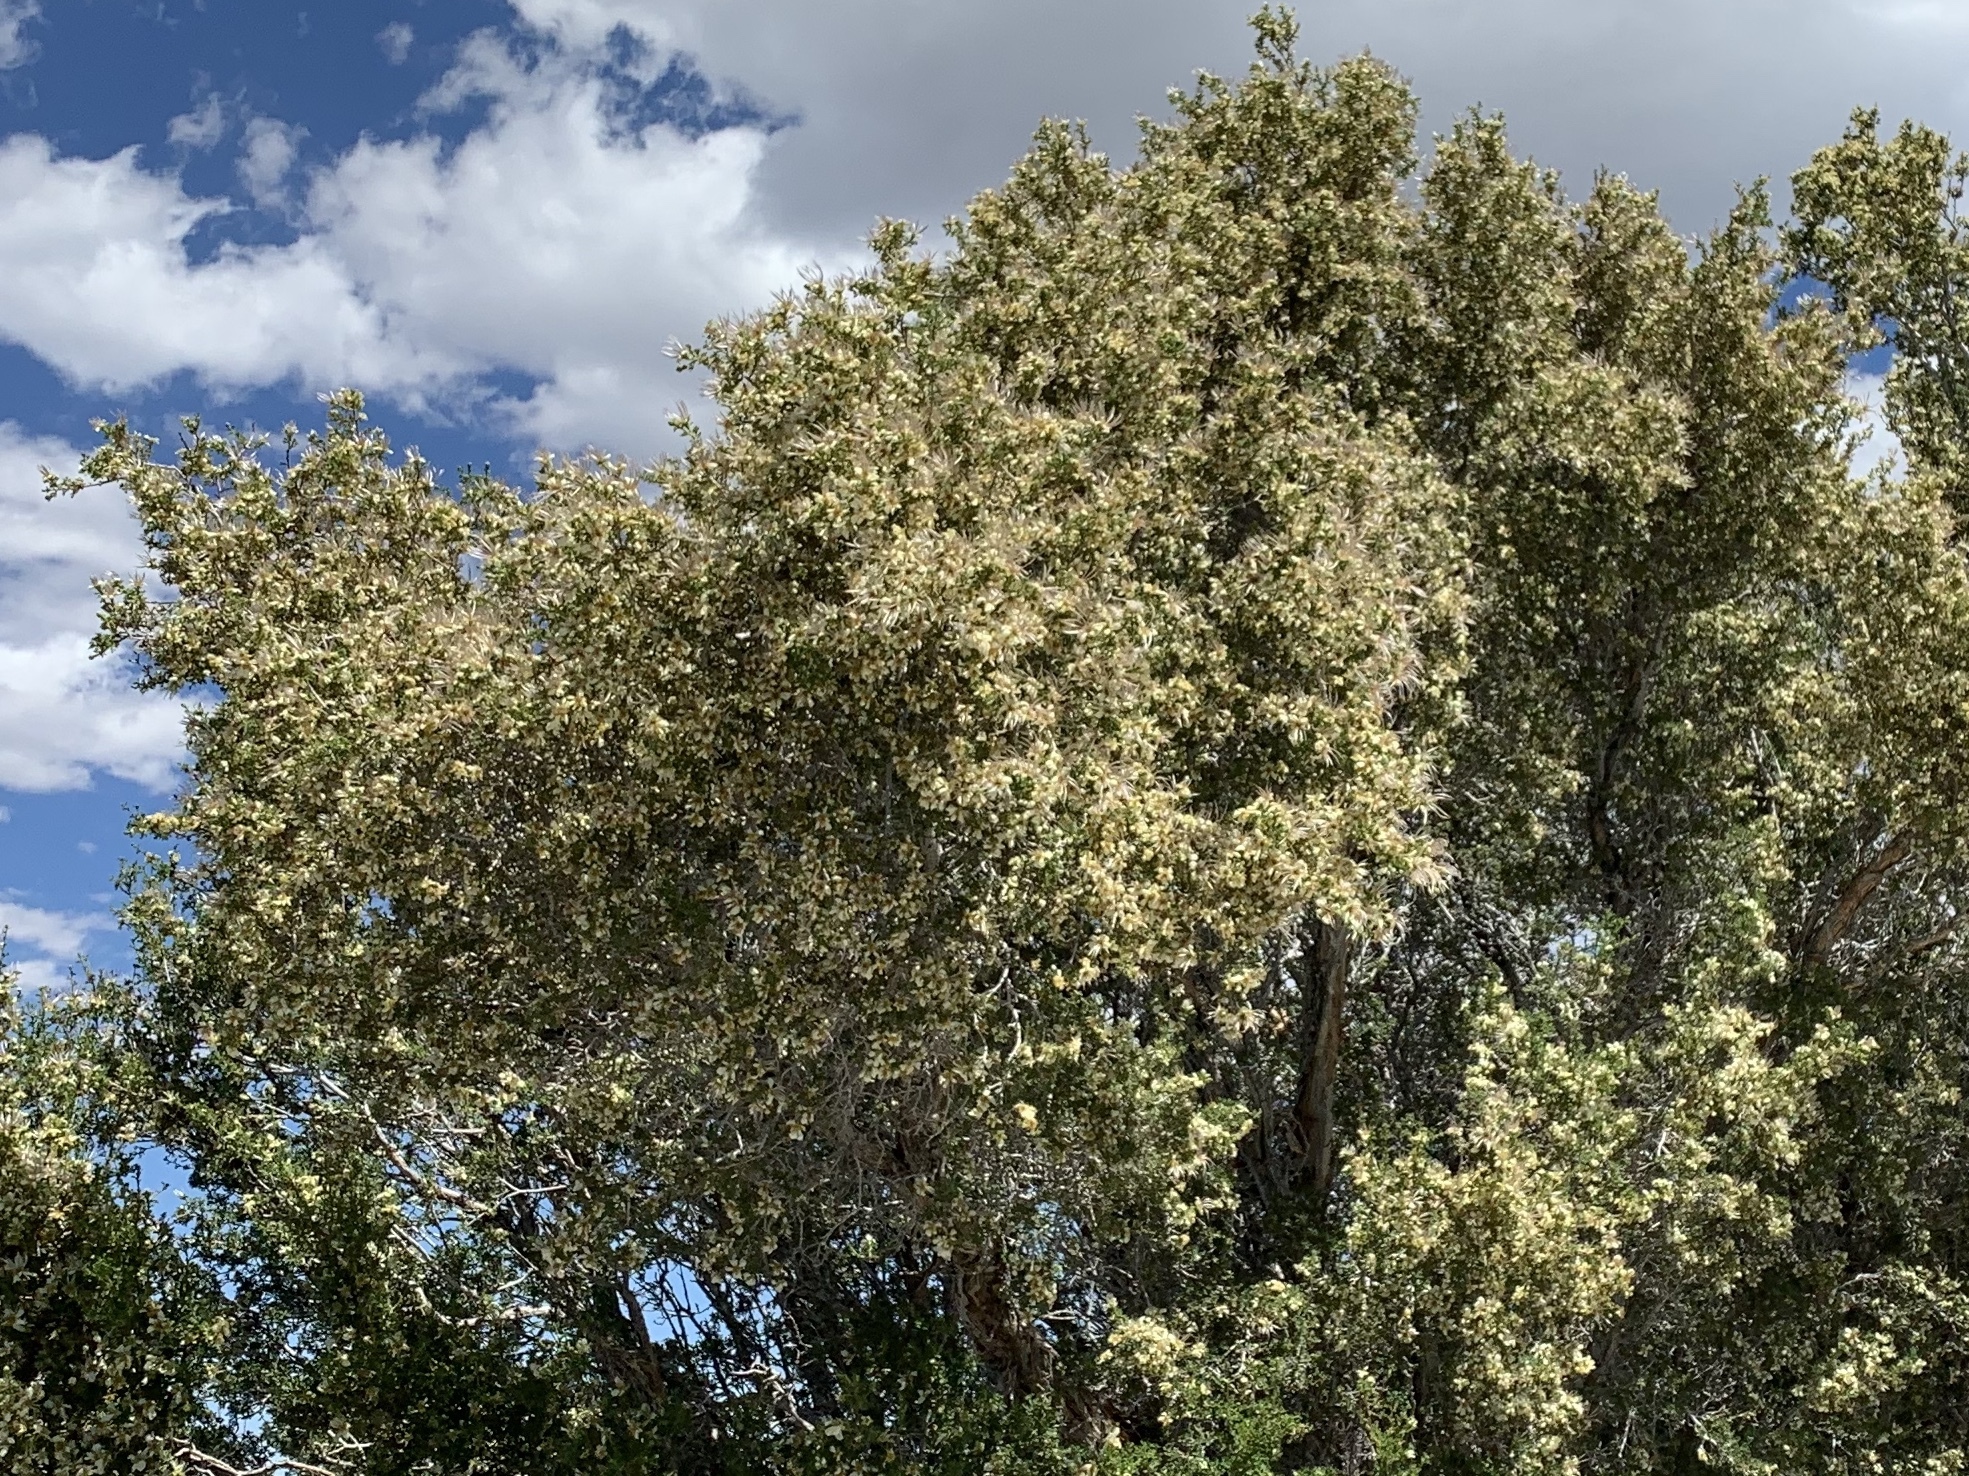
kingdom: Plantae
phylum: Tracheophyta
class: Magnoliopsida
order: Rosales
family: Rosaceae
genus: Purshia
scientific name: Purshia stansburiana
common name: Stansbury's cliffrose
